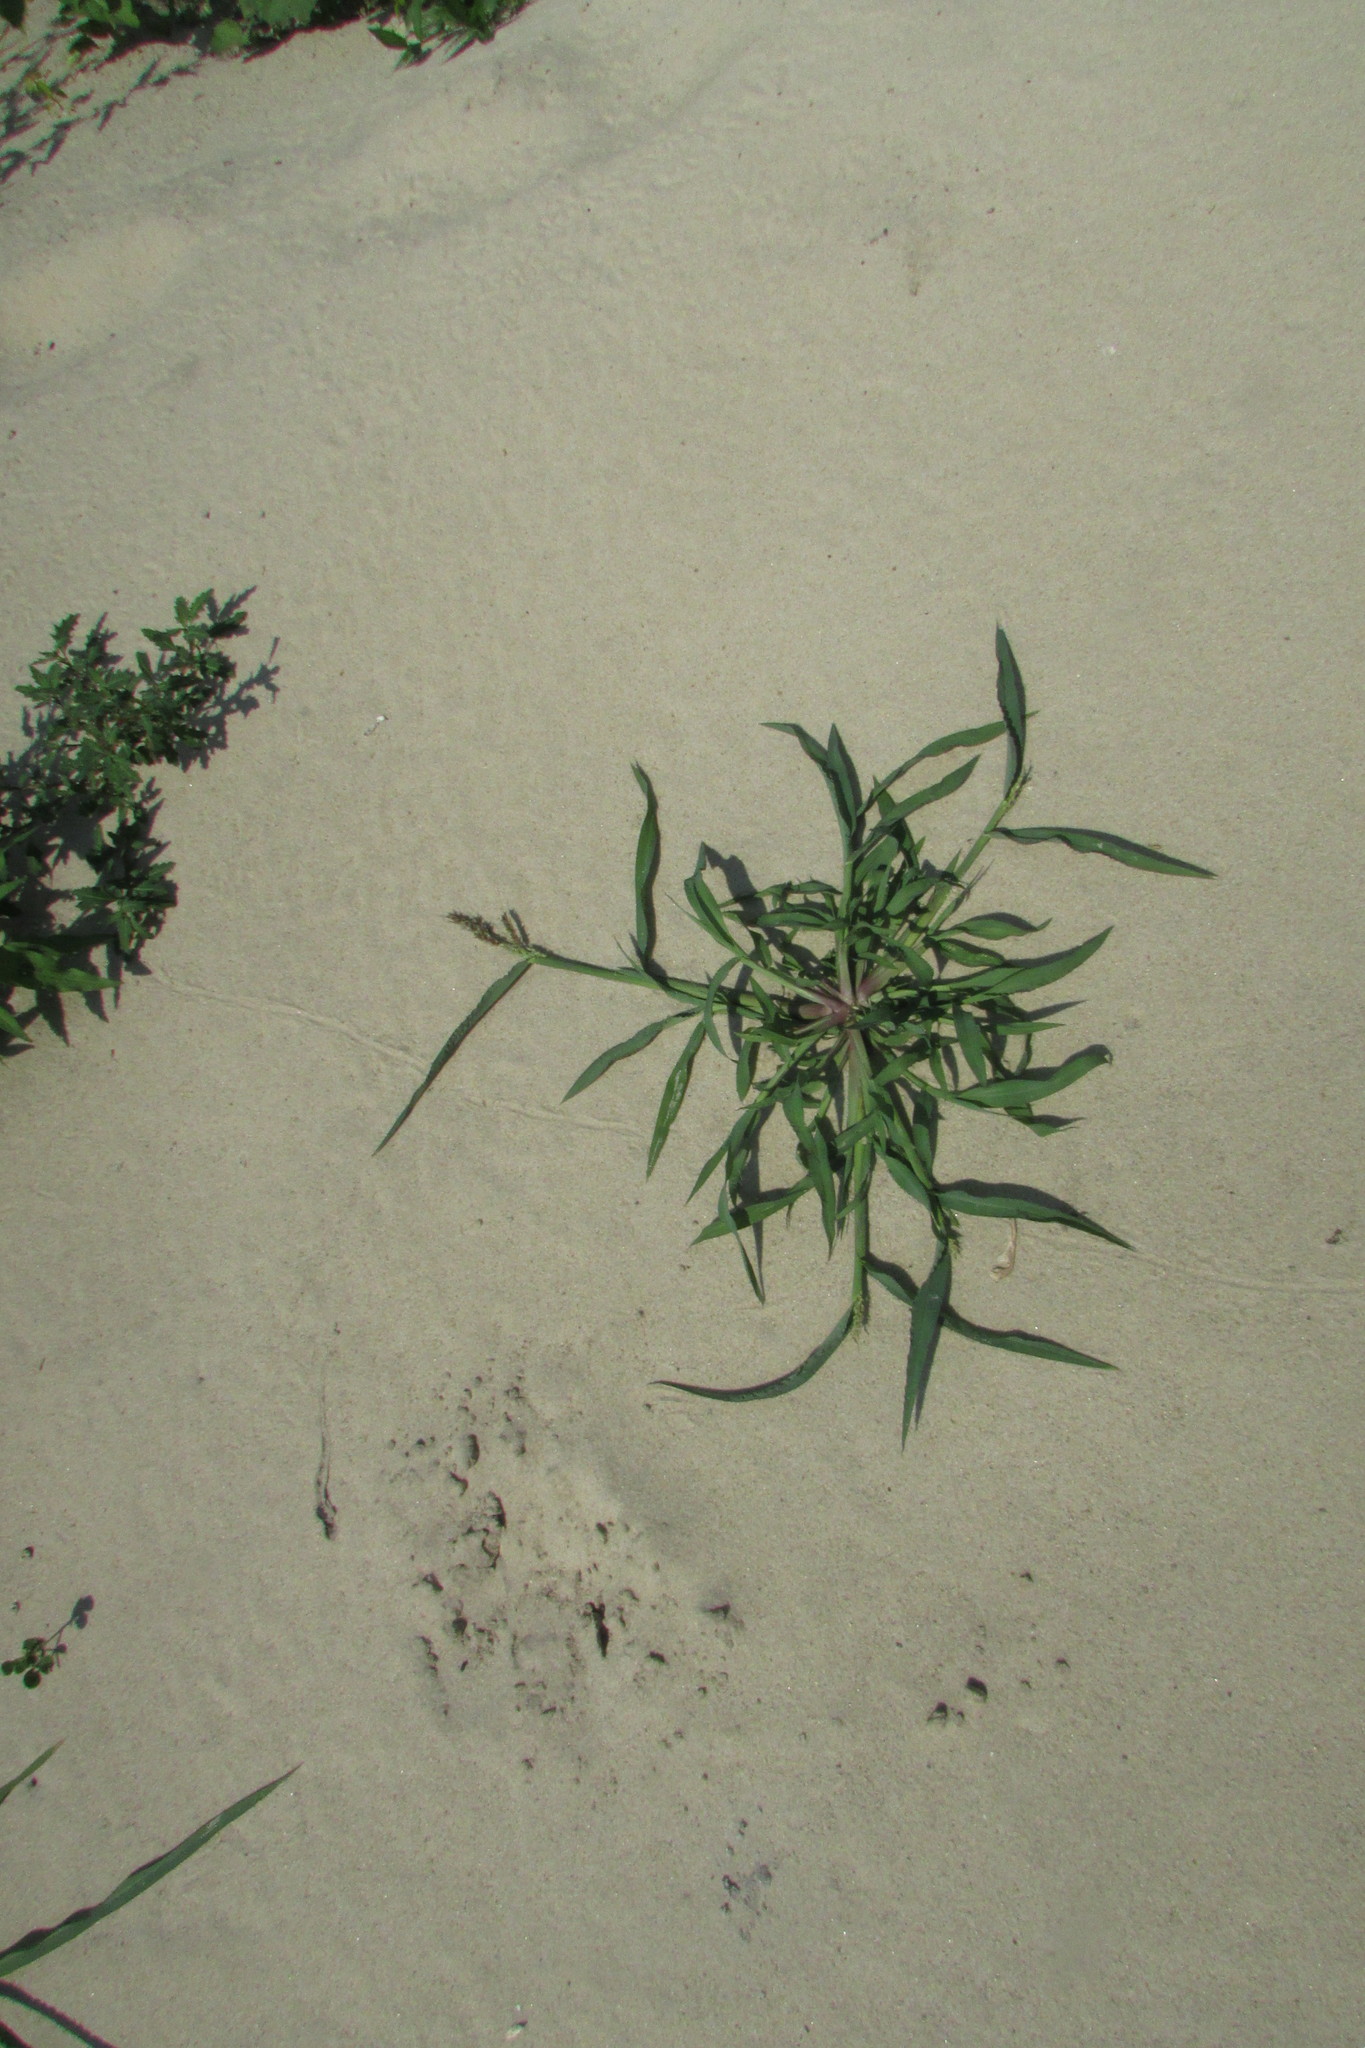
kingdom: Plantae
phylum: Tracheophyta
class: Liliopsida
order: Poales
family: Poaceae
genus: Echinochloa
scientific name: Echinochloa crus-galli
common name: Cockspur
